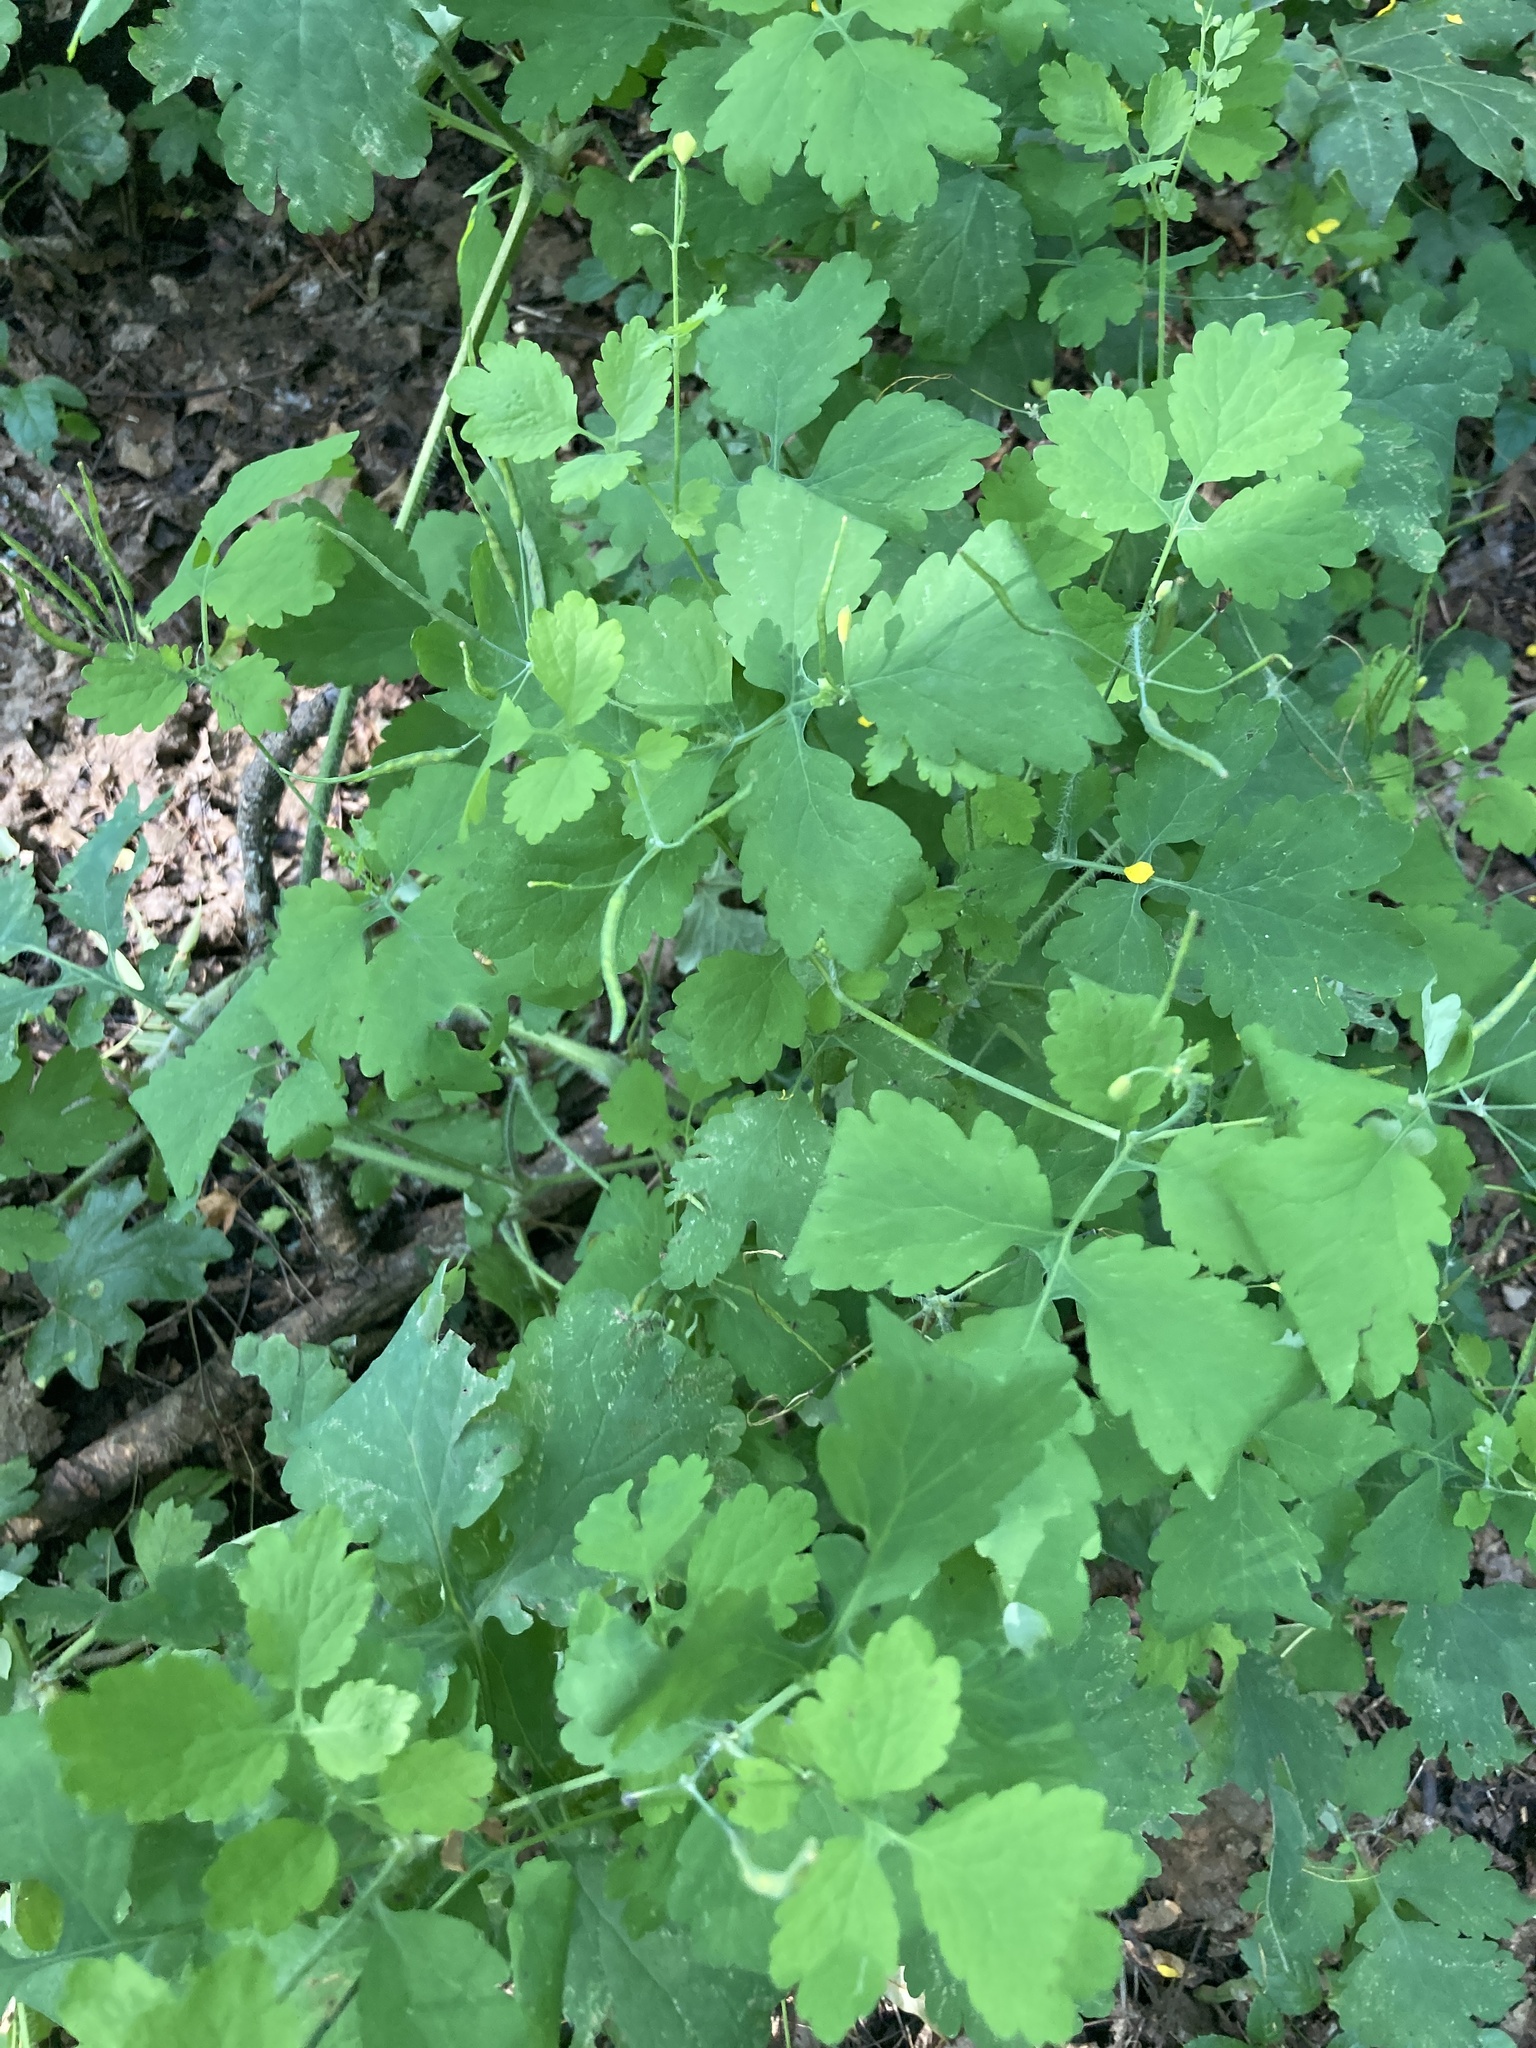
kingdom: Plantae
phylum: Tracheophyta
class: Magnoliopsida
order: Ranunculales
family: Papaveraceae
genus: Chelidonium
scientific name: Chelidonium majus
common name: Greater celandine
